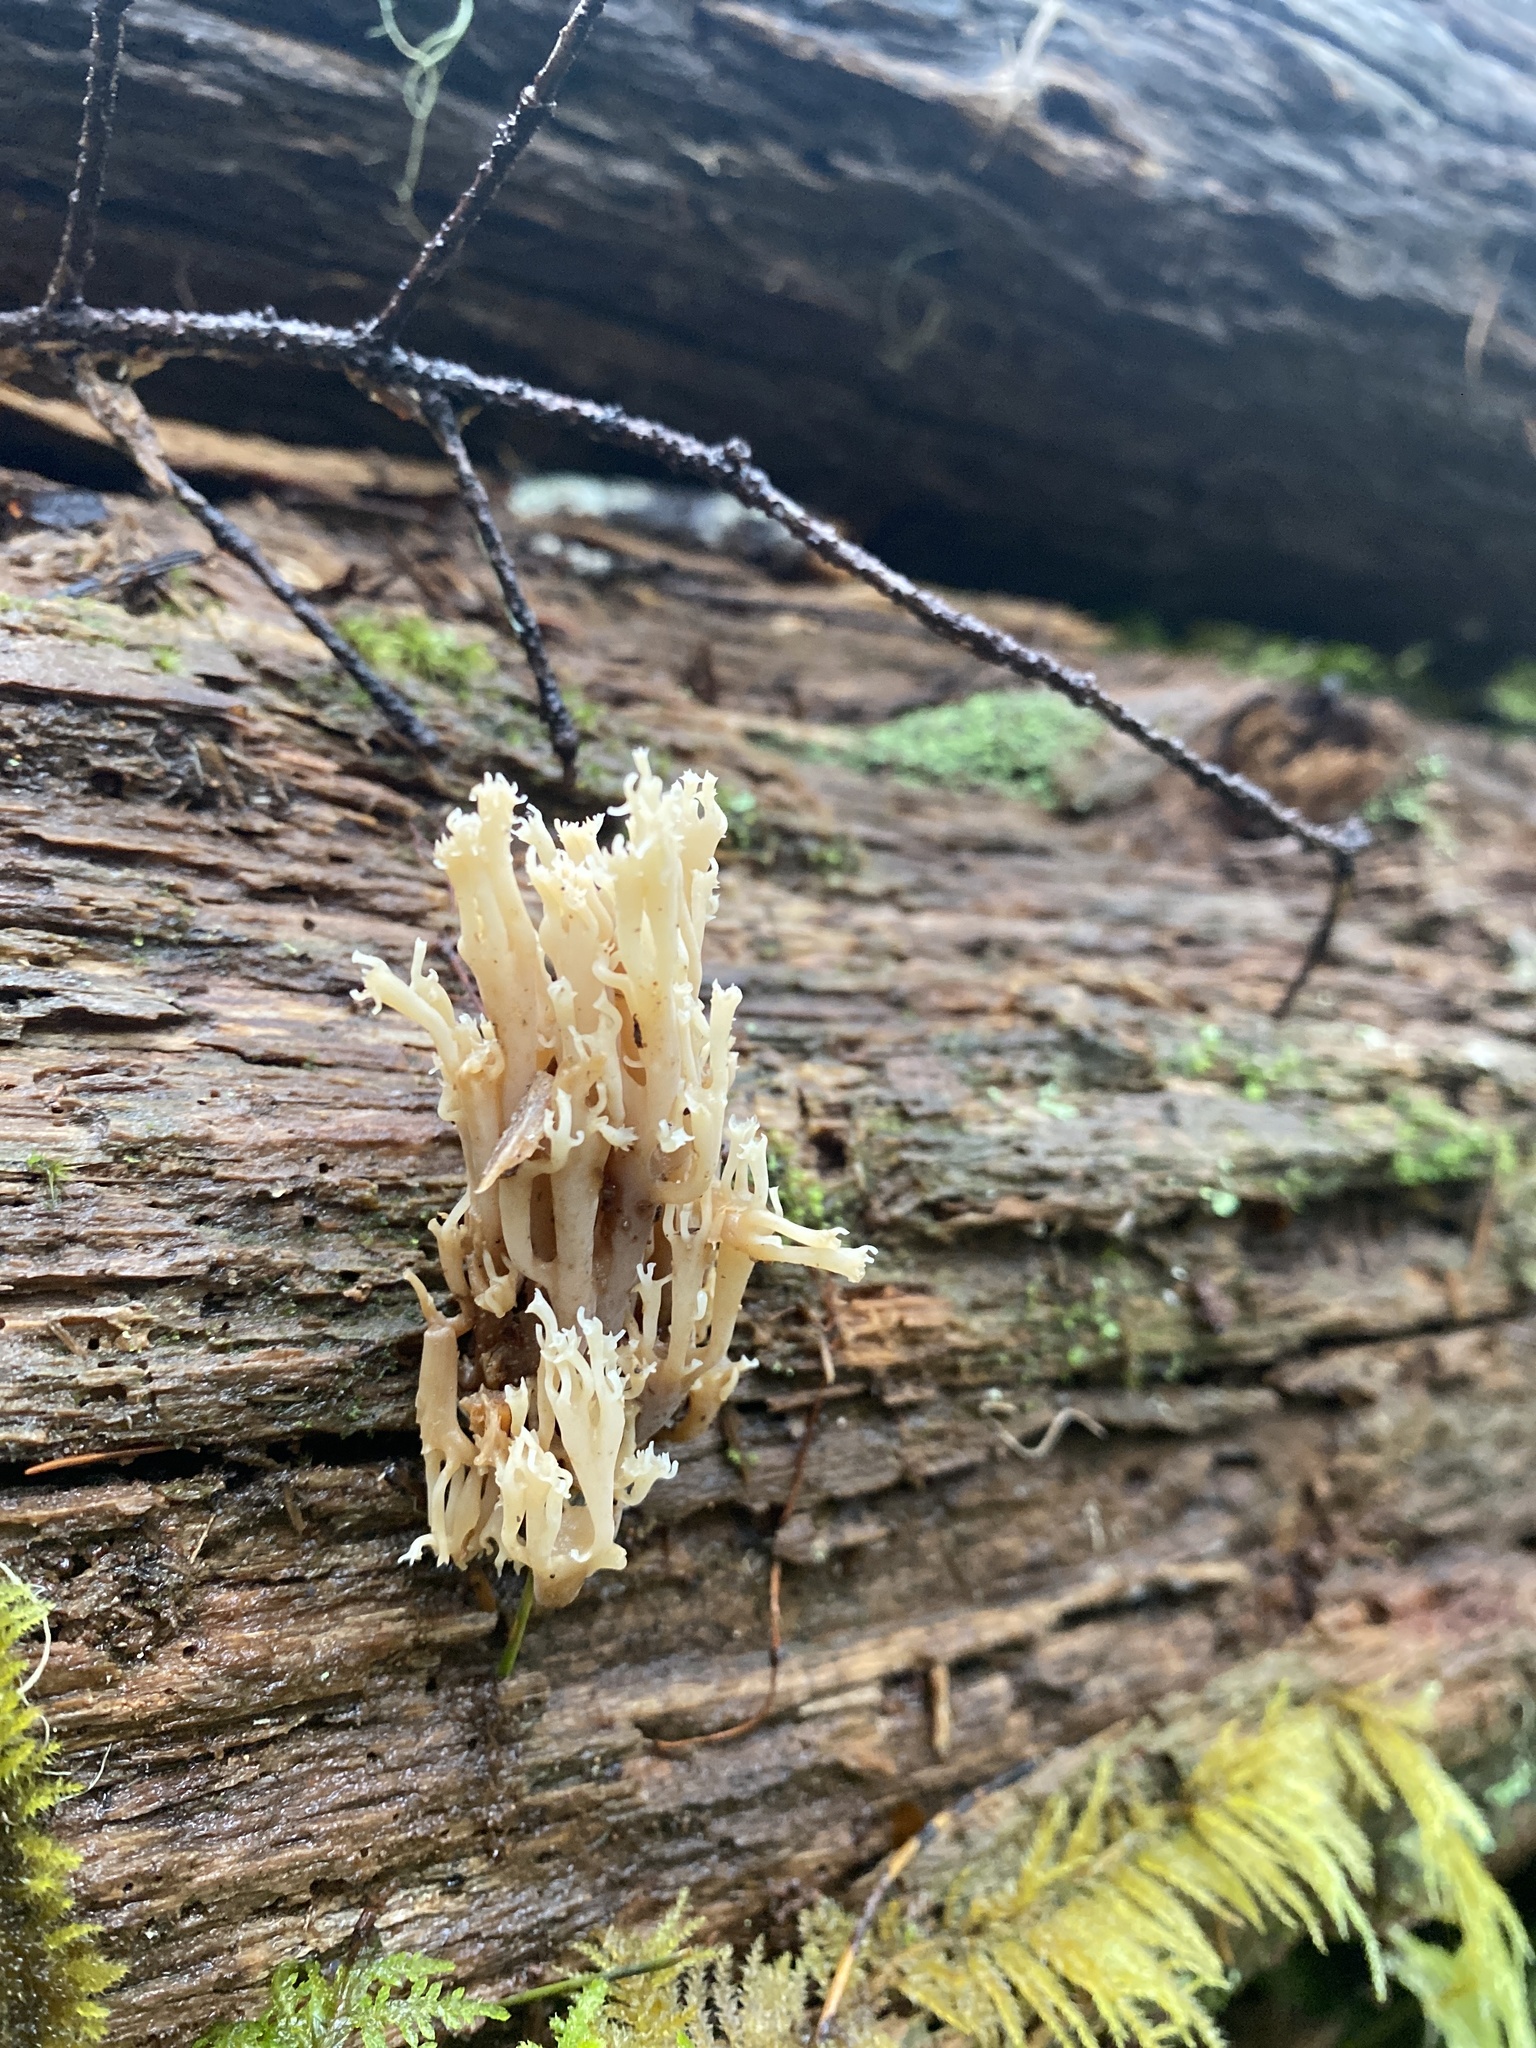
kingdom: Fungi
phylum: Basidiomycota
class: Agaricomycetes
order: Russulales
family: Auriscalpiaceae
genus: Artomyces
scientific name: Artomyces piperatus
